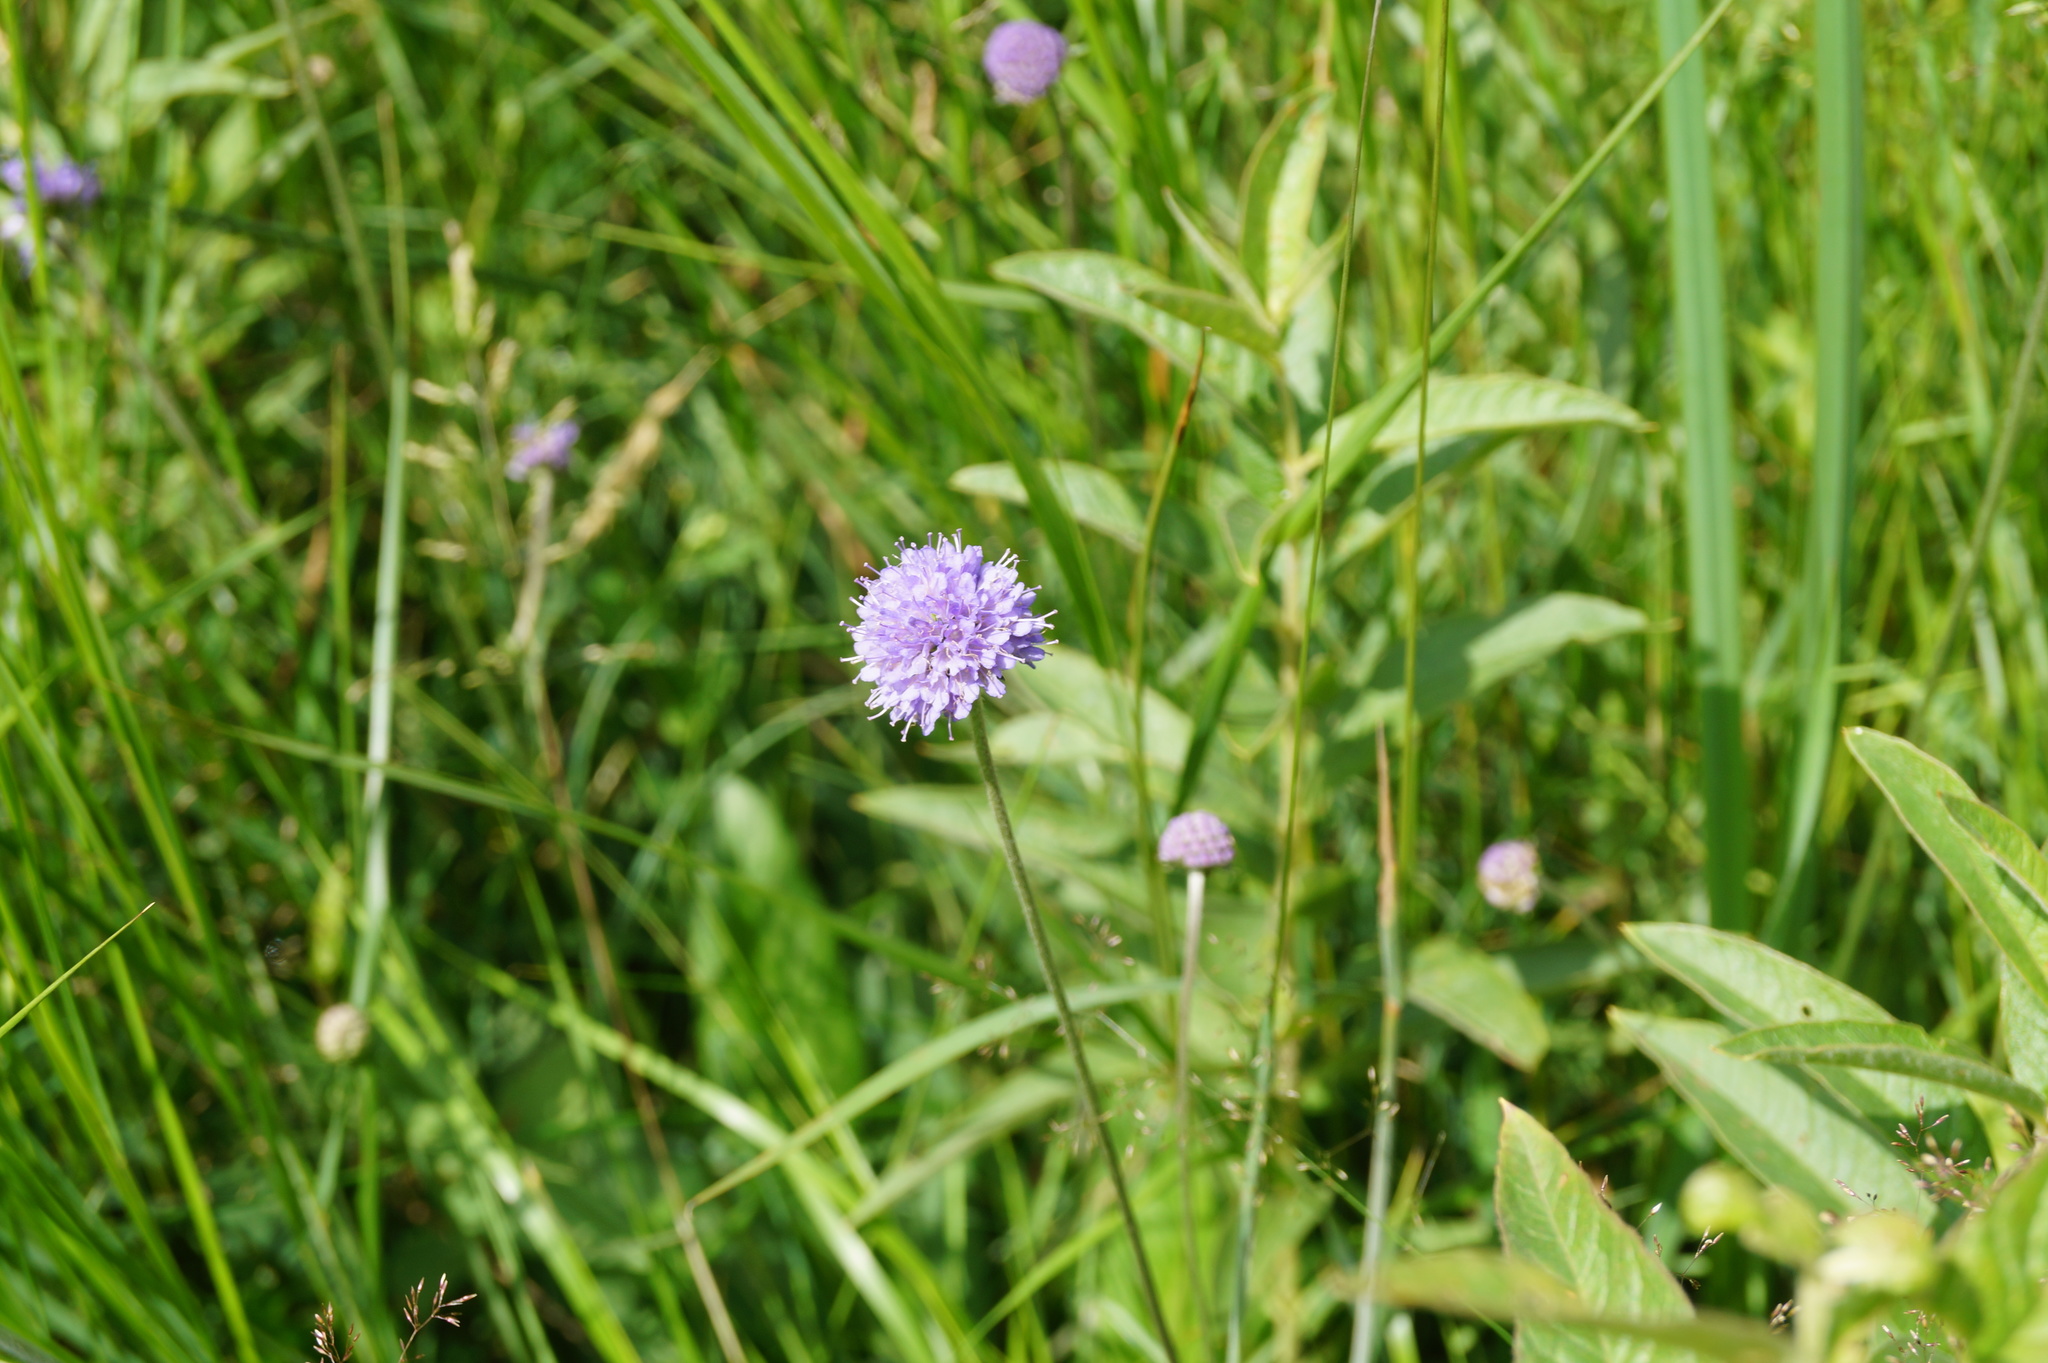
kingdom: Plantae
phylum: Tracheophyta
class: Magnoliopsida
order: Dipsacales
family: Caprifoliaceae
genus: Succisa
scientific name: Succisa pratensis
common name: Devil's-bit
